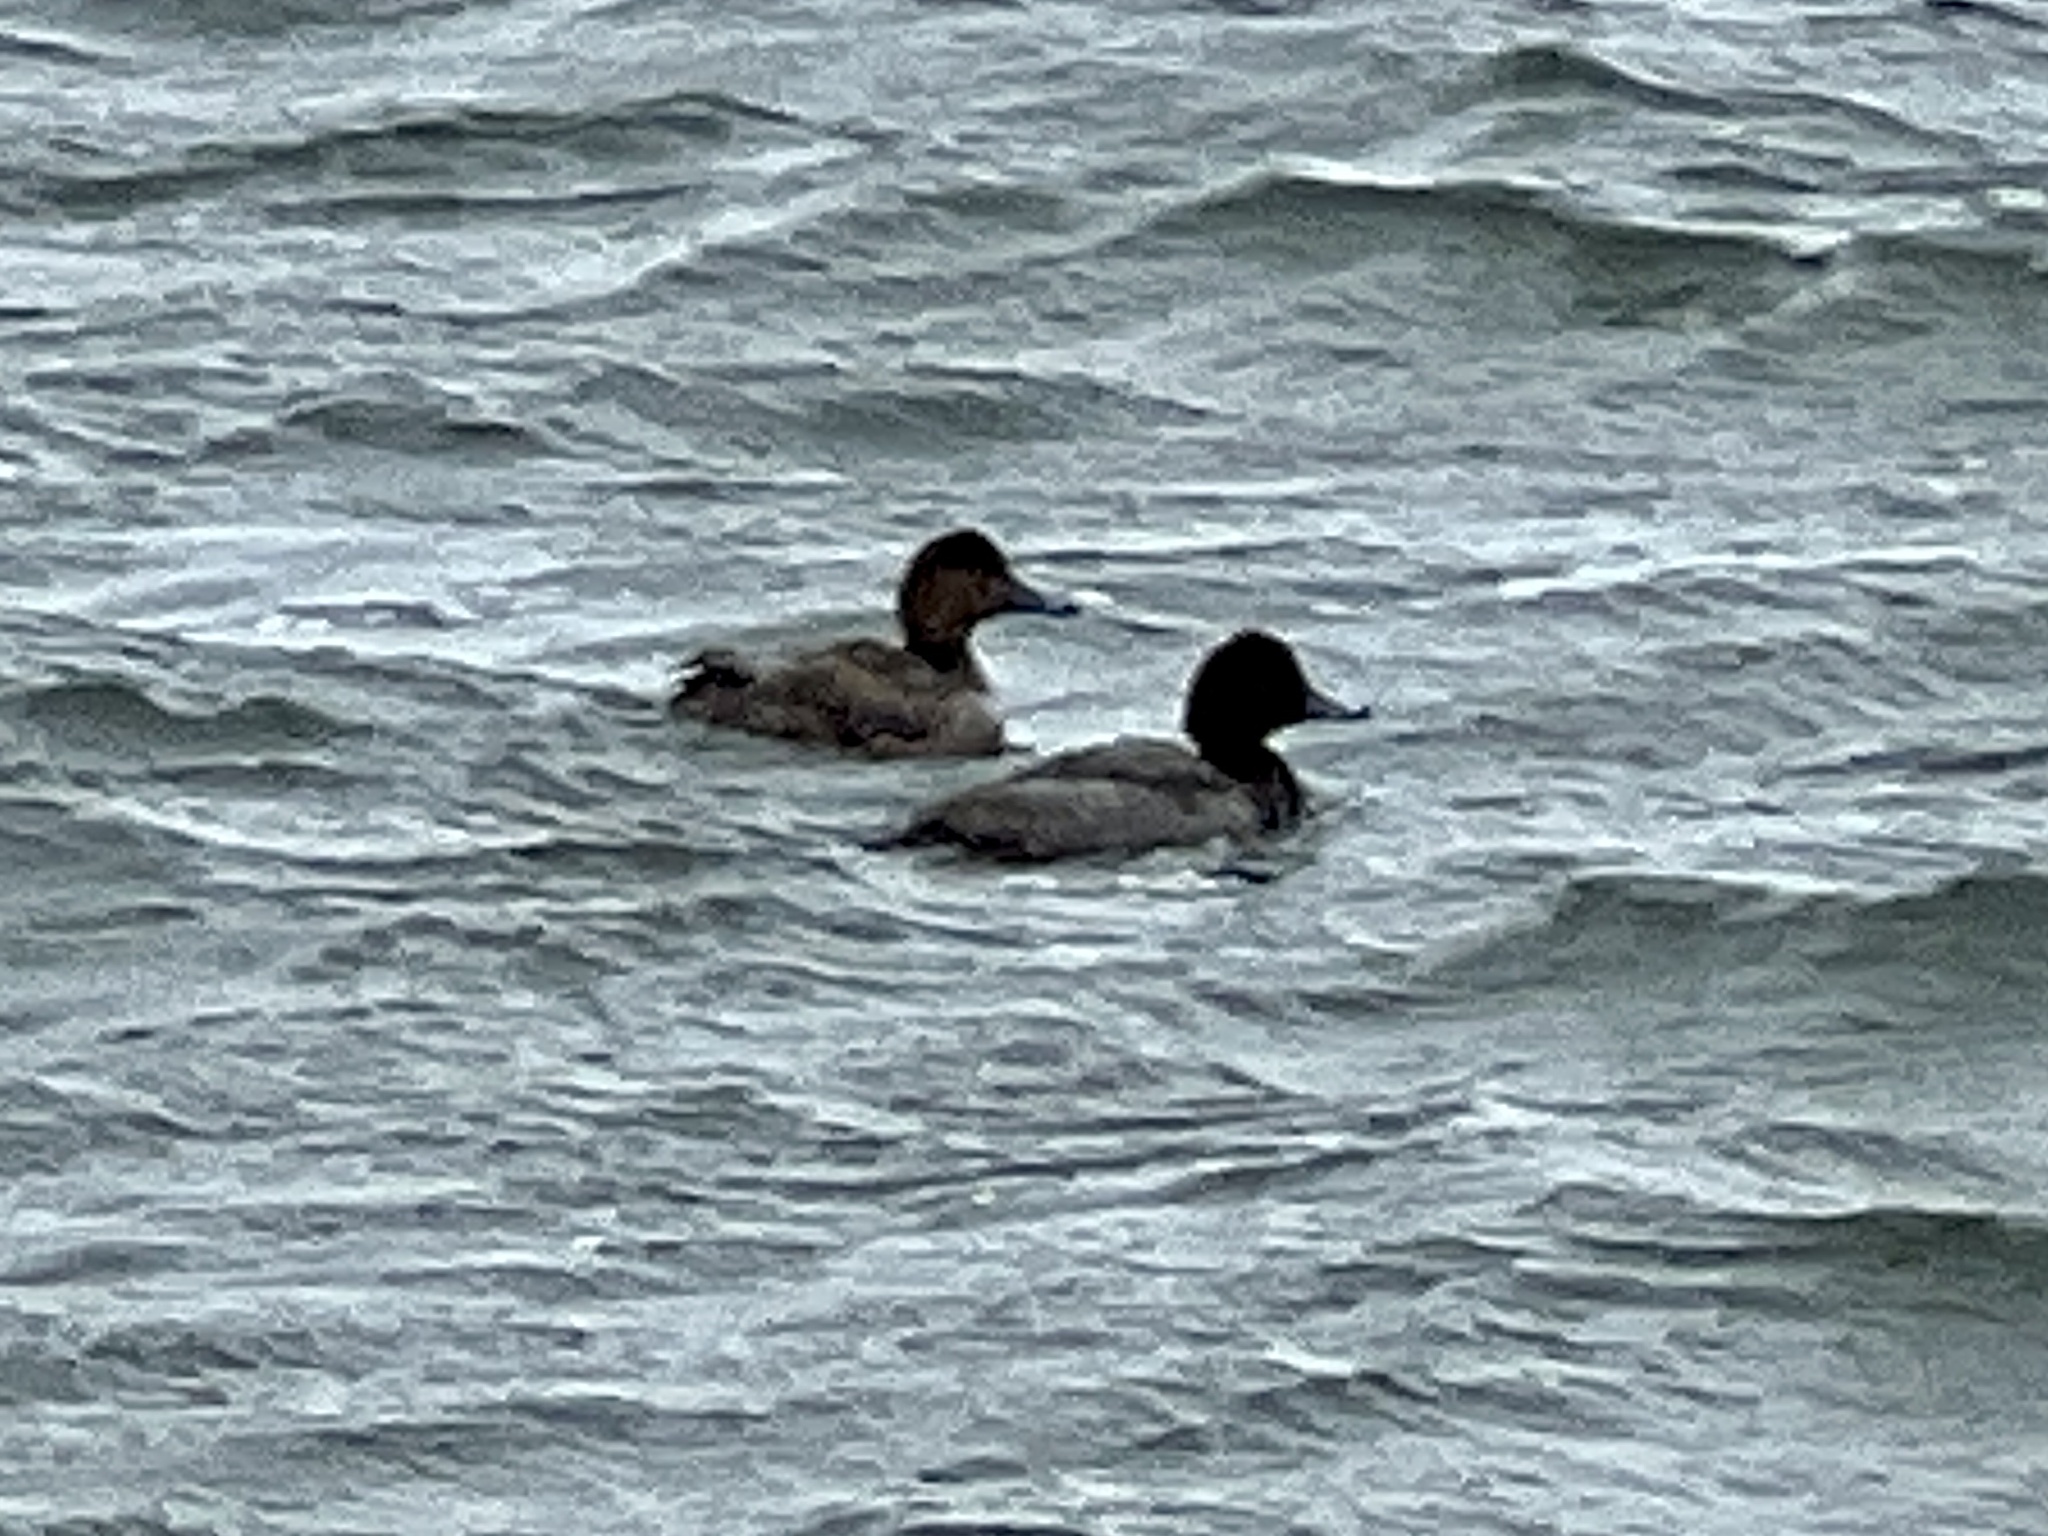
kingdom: Animalia
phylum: Chordata
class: Aves
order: Anseriformes
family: Anatidae
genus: Aythya
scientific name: Aythya americana
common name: Redhead
